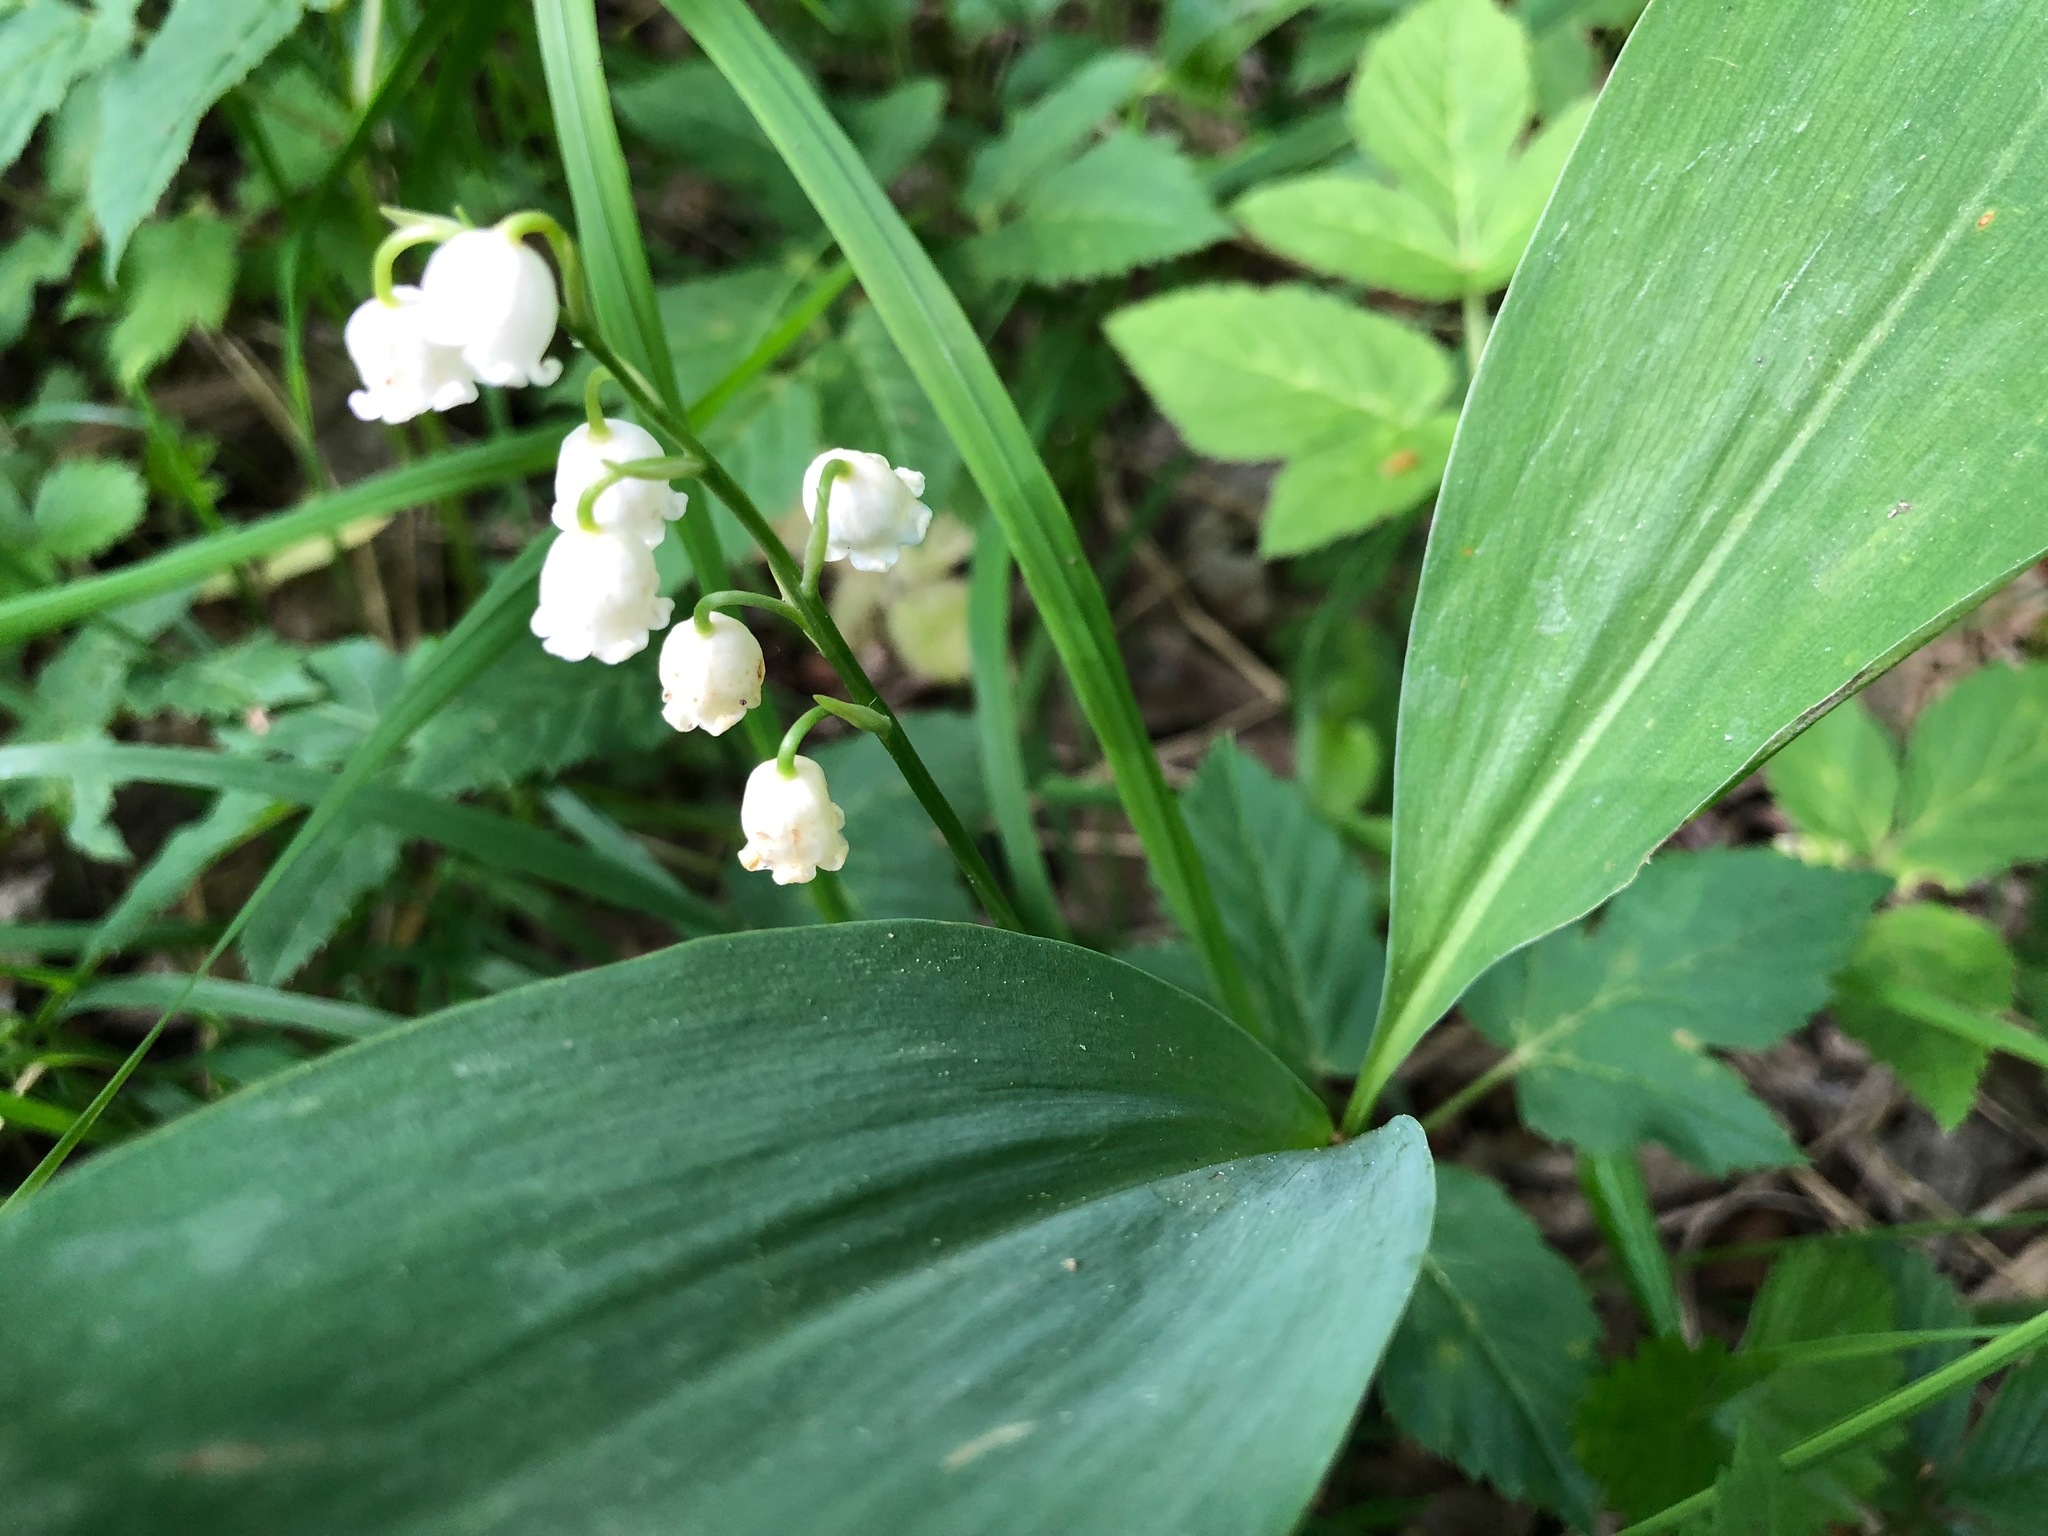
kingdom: Plantae
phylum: Tracheophyta
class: Liliopsida
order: Asparagales
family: Asparagaceae
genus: Convallaria
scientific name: Convallaria majalis
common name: Lily-of-the-valley
